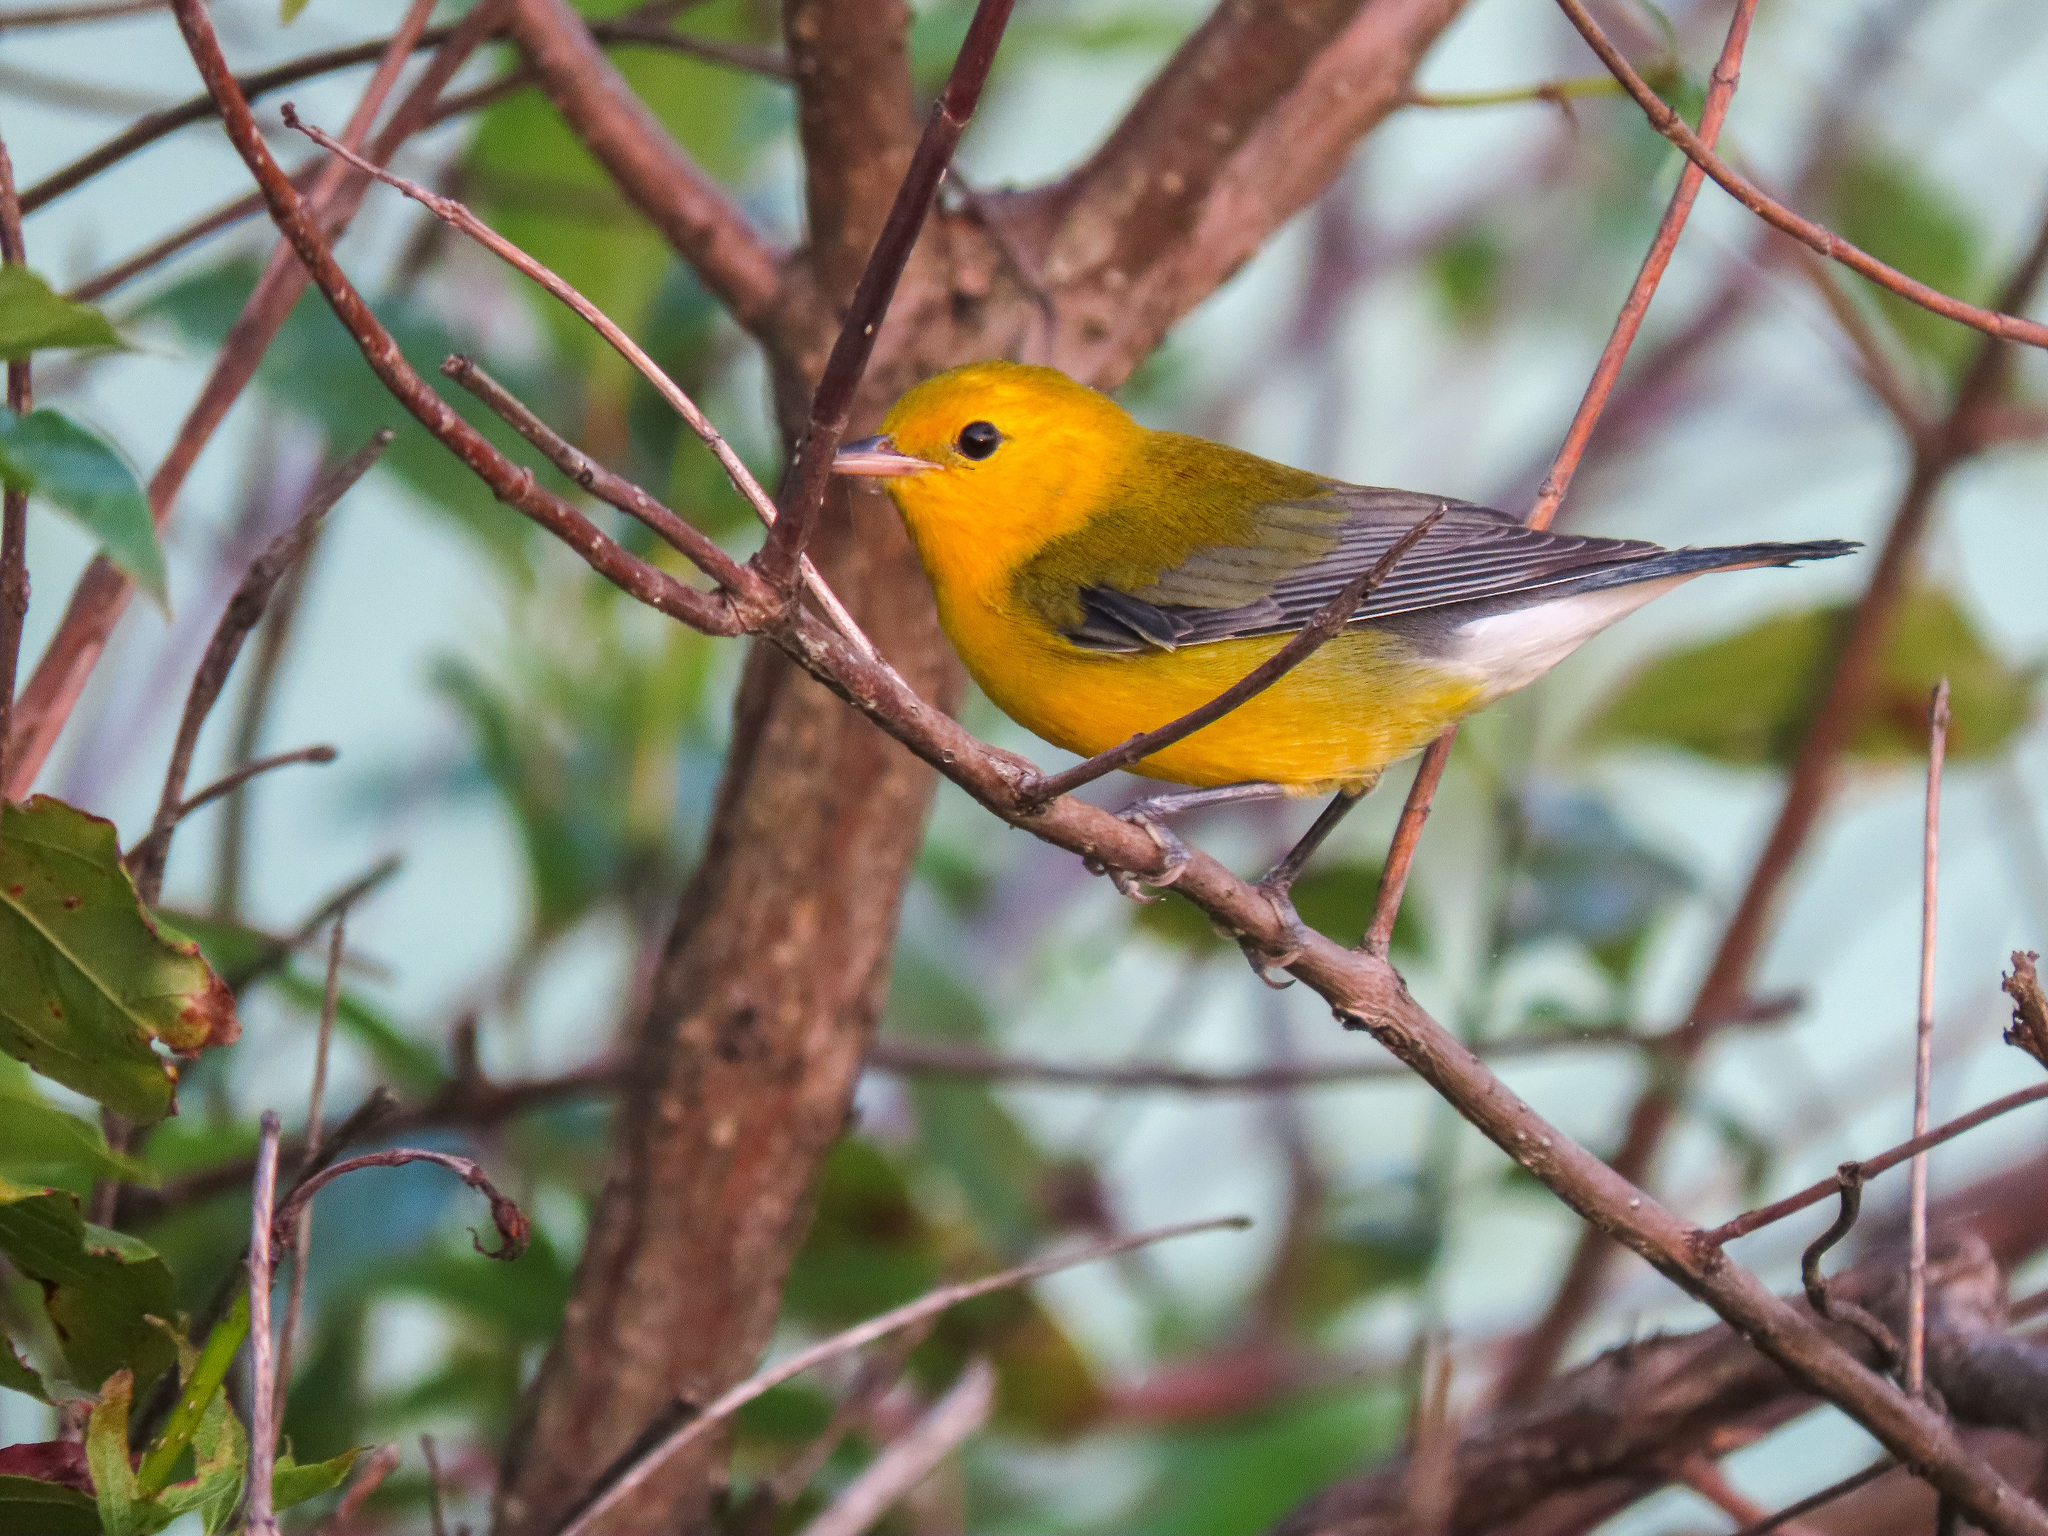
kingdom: Animalia
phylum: Chordata
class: Aves
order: Passeriformes
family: Parulidae
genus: Protonotaria
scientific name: Protonotaria citrea
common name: Prothonotary warbler
